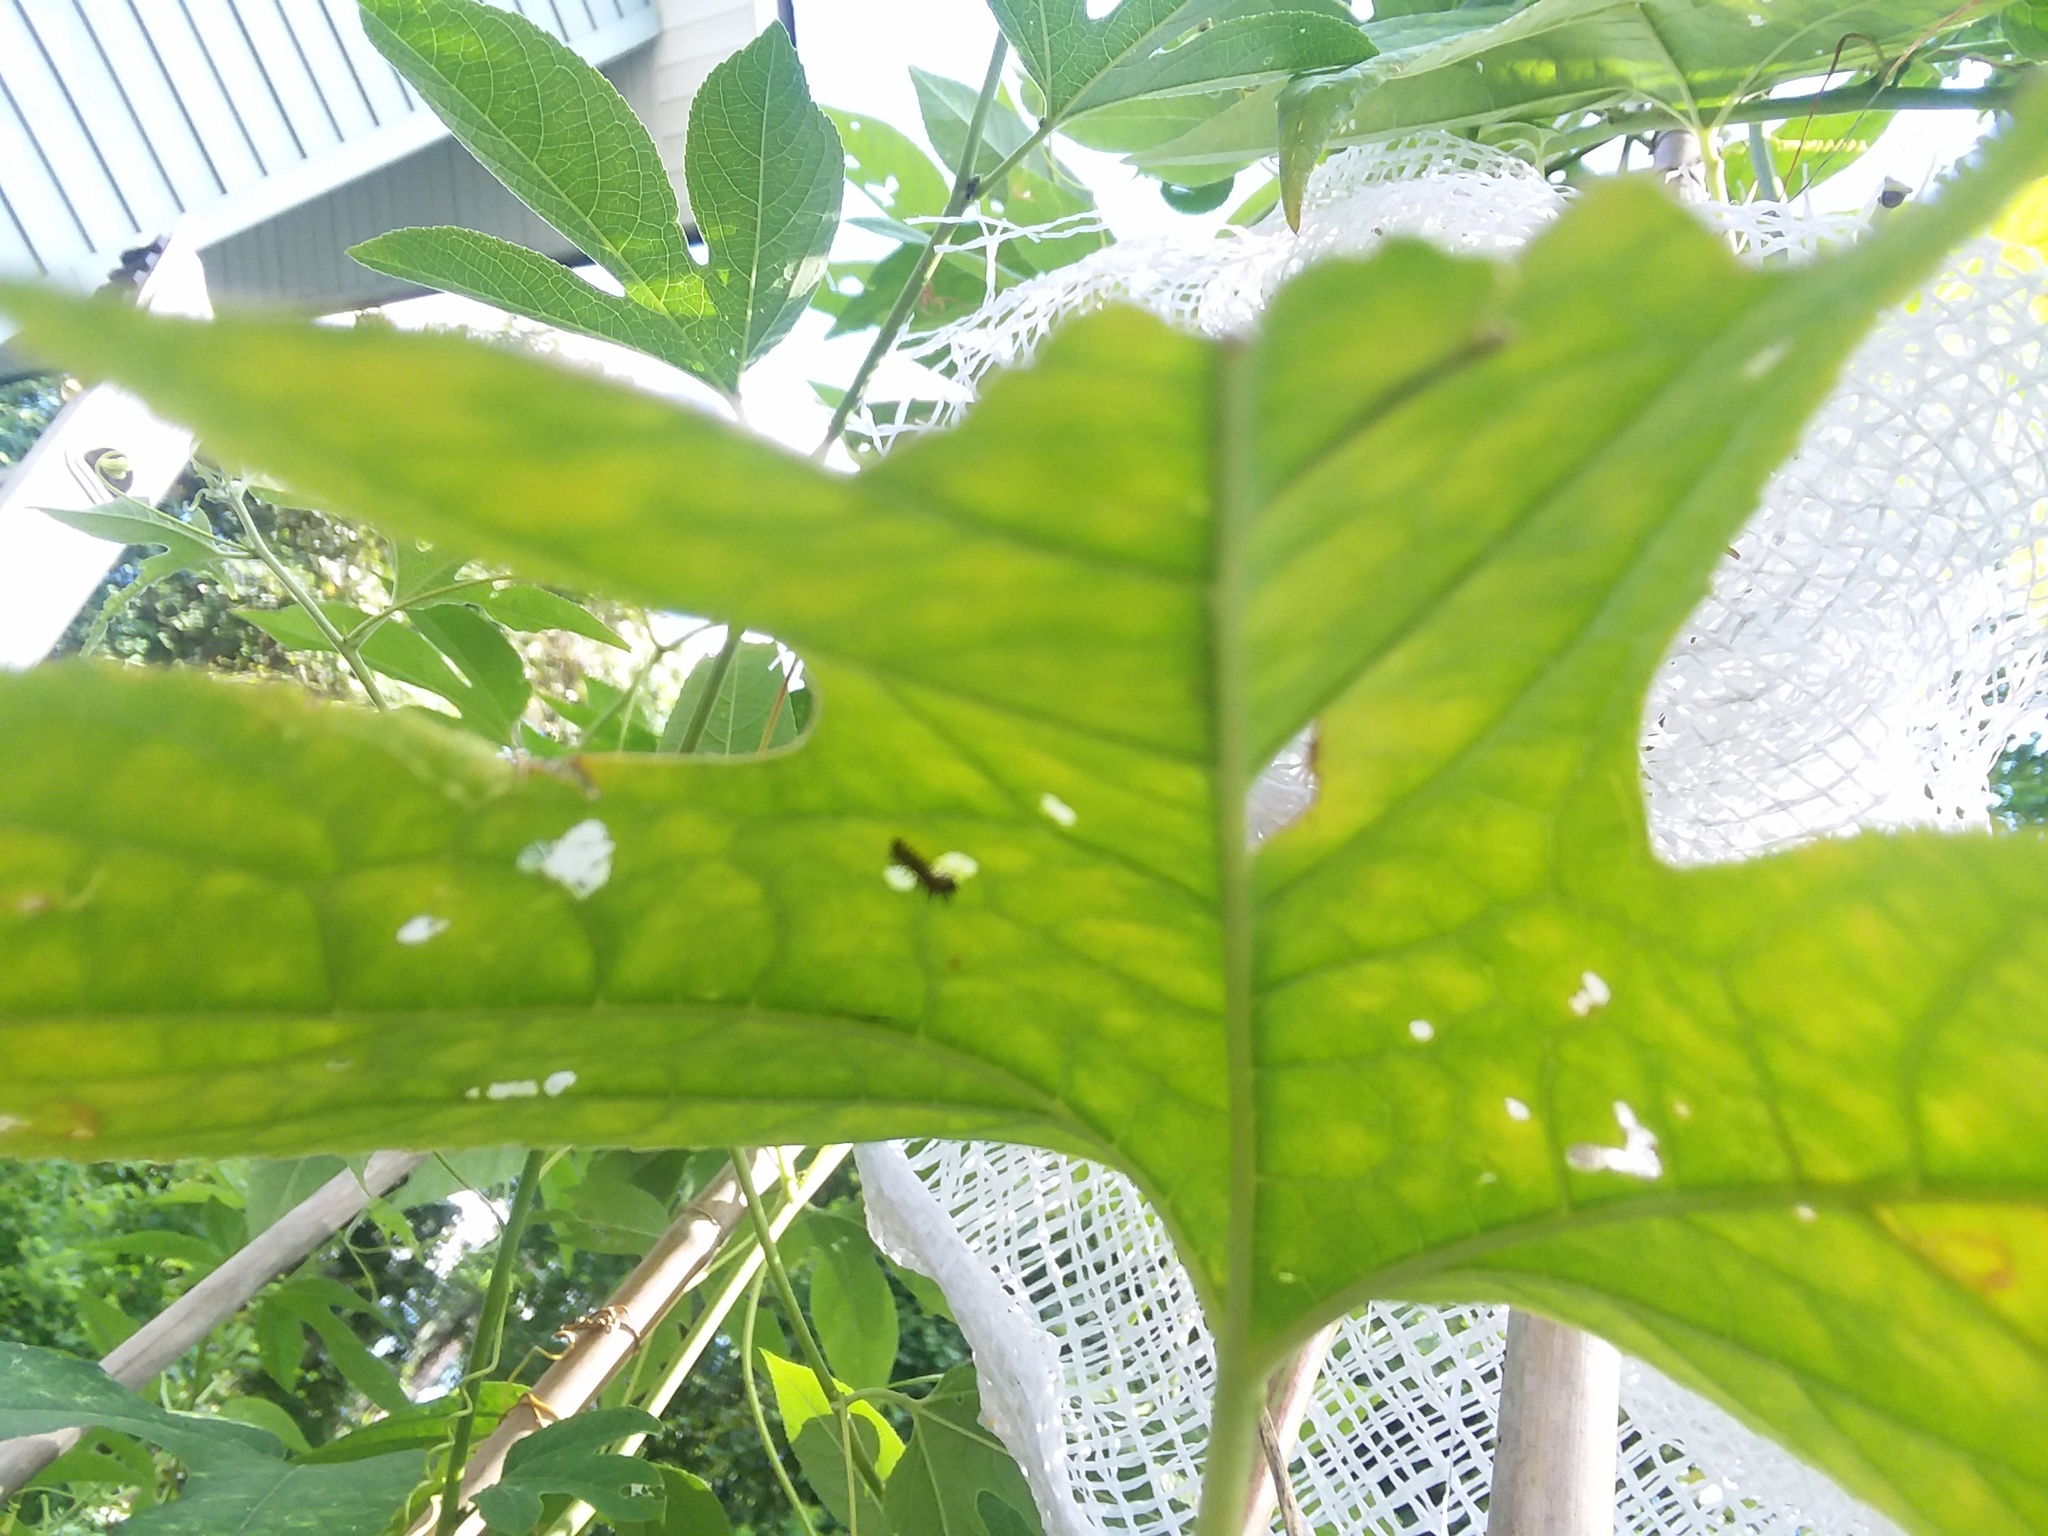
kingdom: Animalia
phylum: Arthropoda
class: Insecta
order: Lepidoptera
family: Nymphalidae
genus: Dione
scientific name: Dione vanillae
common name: Gulf fritillary
